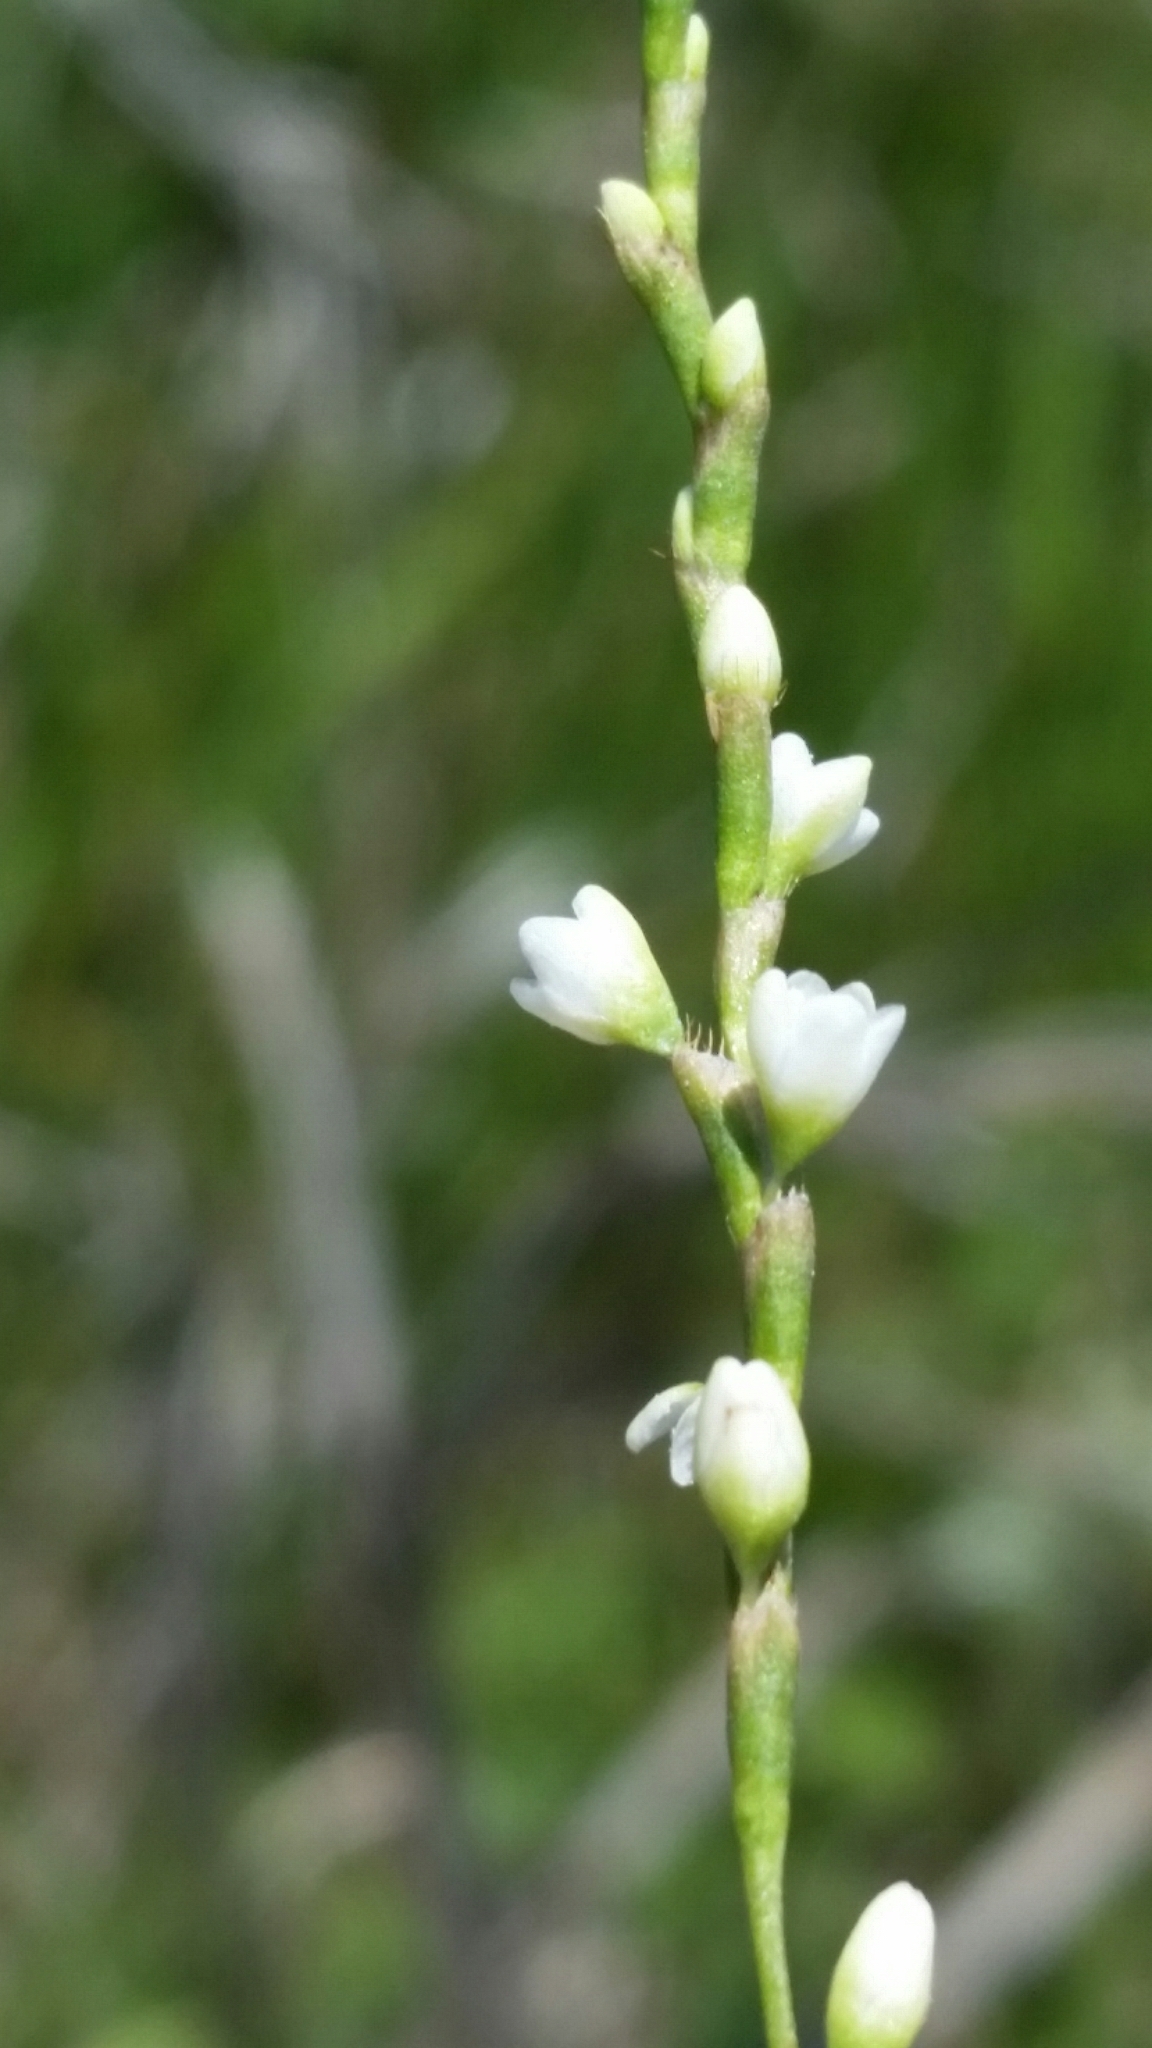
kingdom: Plantae
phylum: Tracheophyta
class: Magnoliopsida
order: Caryophyllales
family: Polygonaceae
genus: Persicaria
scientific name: Persicaria punctata
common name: Dotted smartweed
